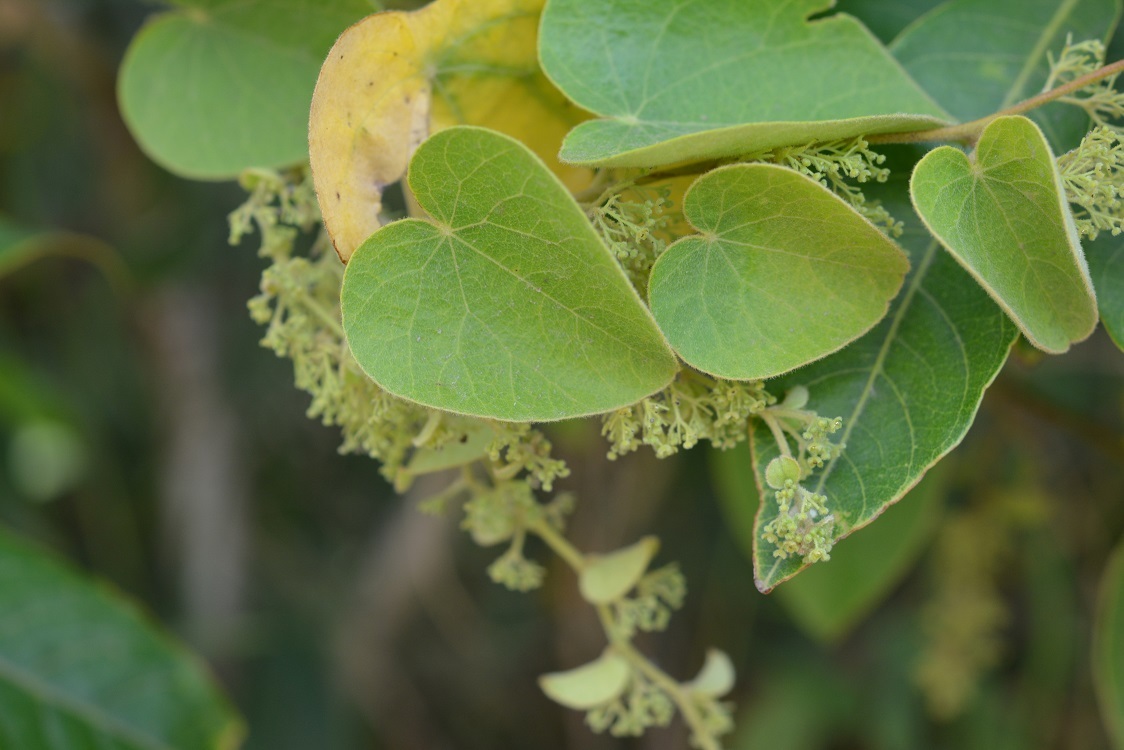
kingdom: Plantae
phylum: Tracheophyta
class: Magnoliopsida
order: Ranunculales
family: Menispermaceae
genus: Cissampelos
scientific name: Cissampelos pareira
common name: Velvetleaf
